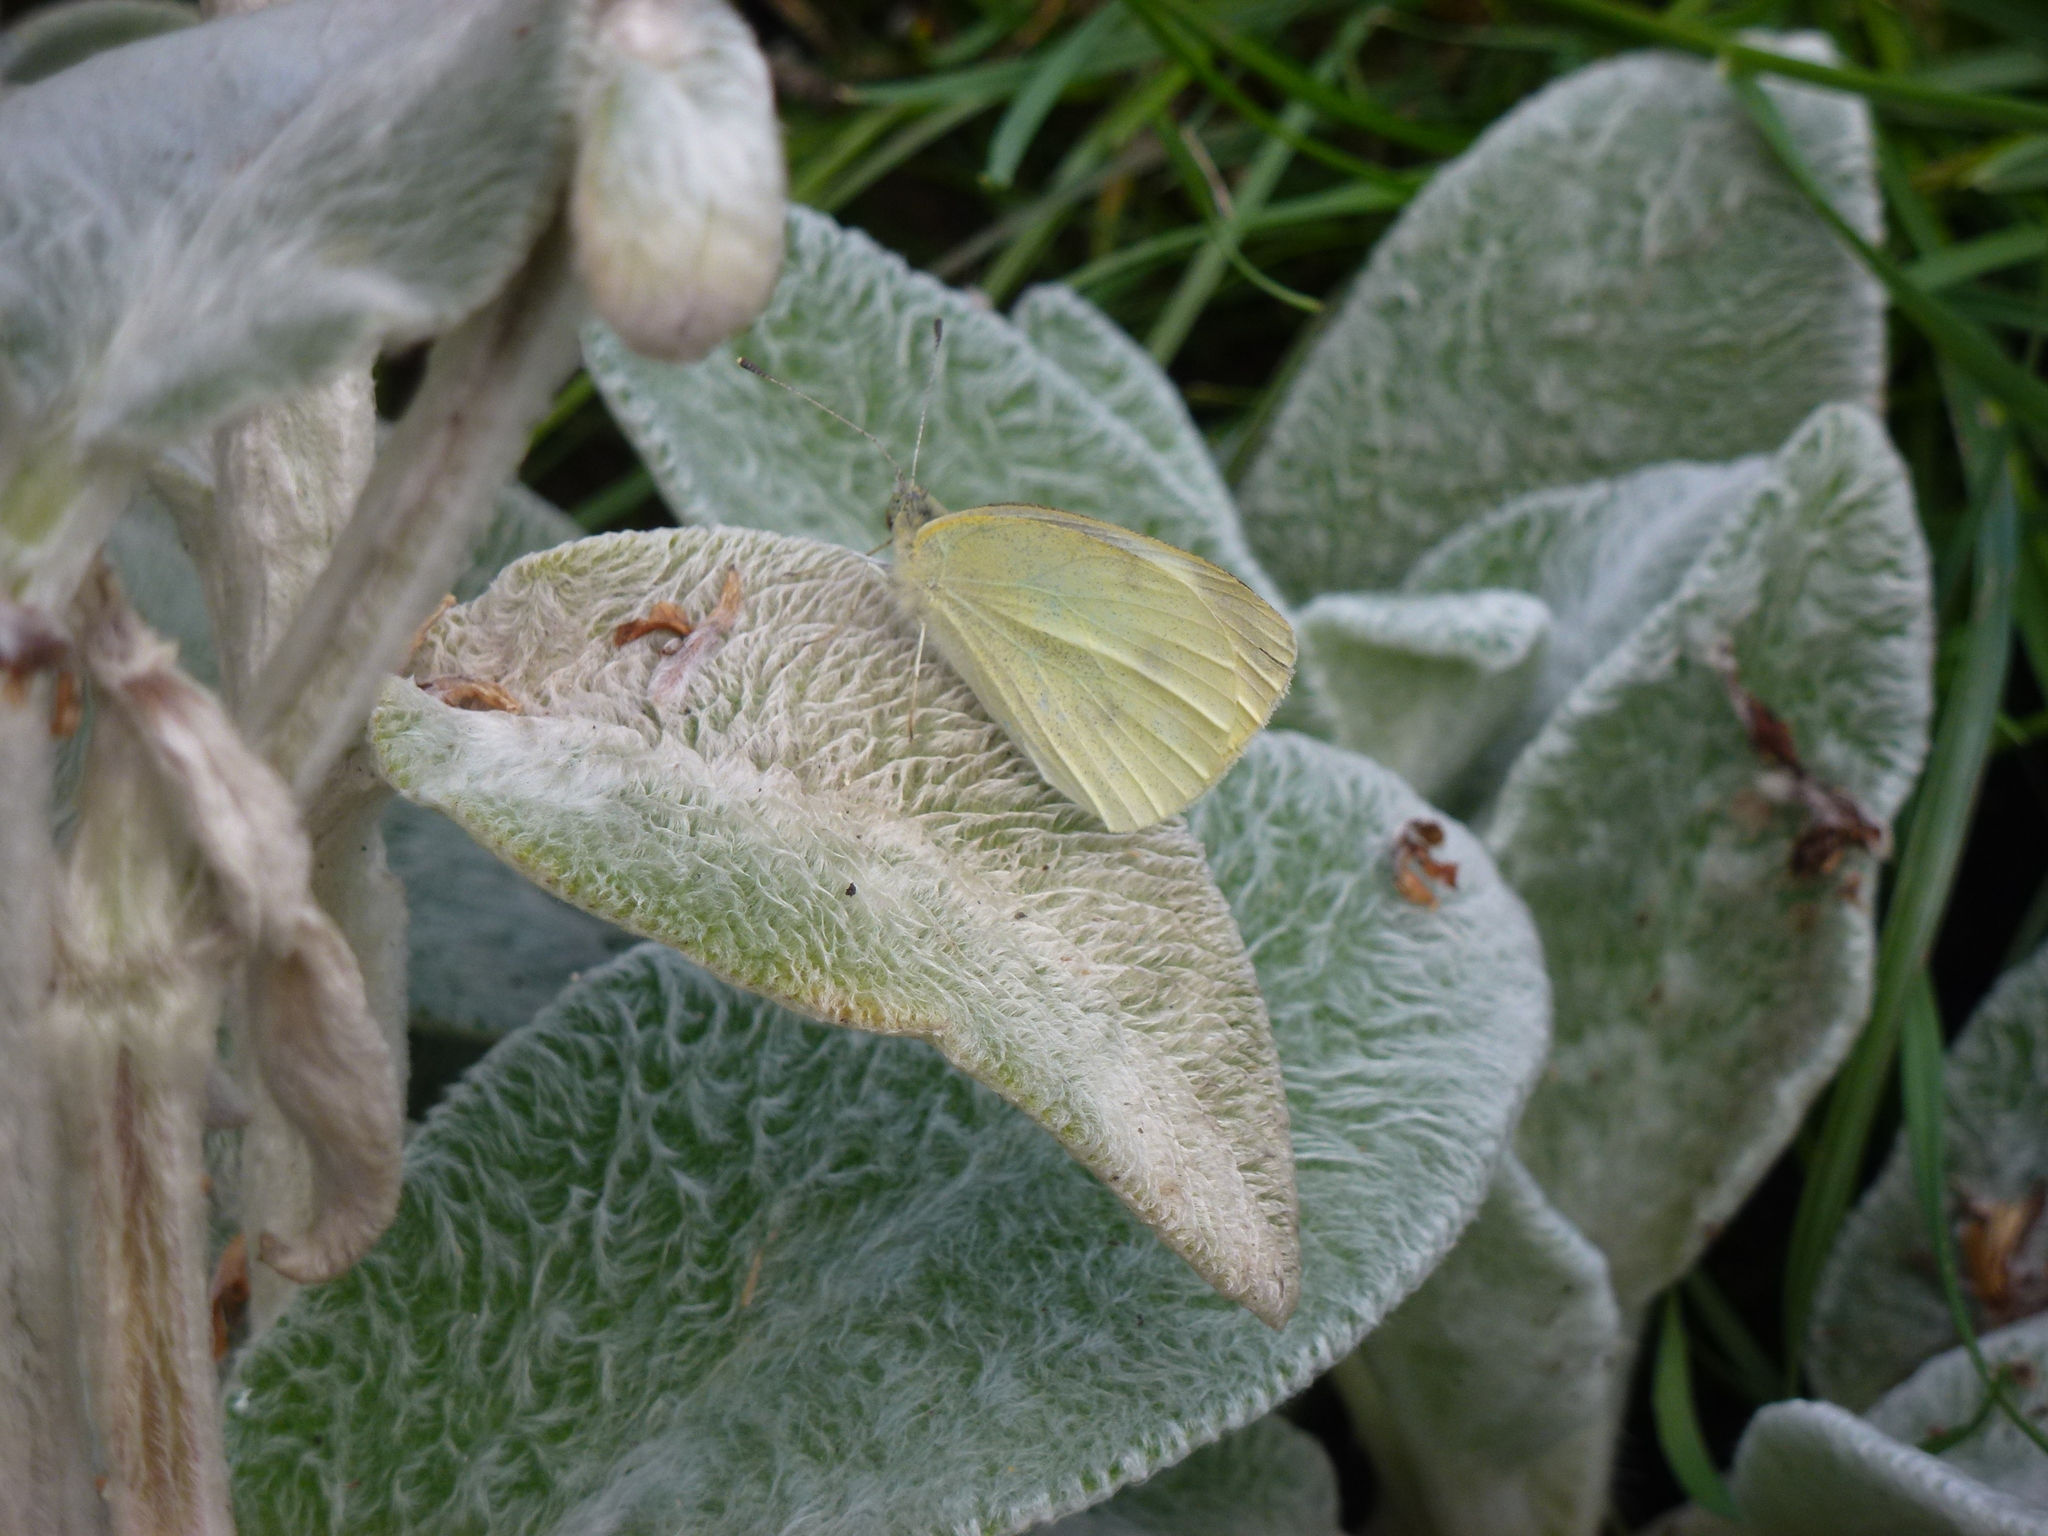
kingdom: Animalia
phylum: Arthropoda
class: Insecta
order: Lepidoptera
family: Pieridae
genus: Pieris
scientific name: Pieris rapae
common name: Small white
